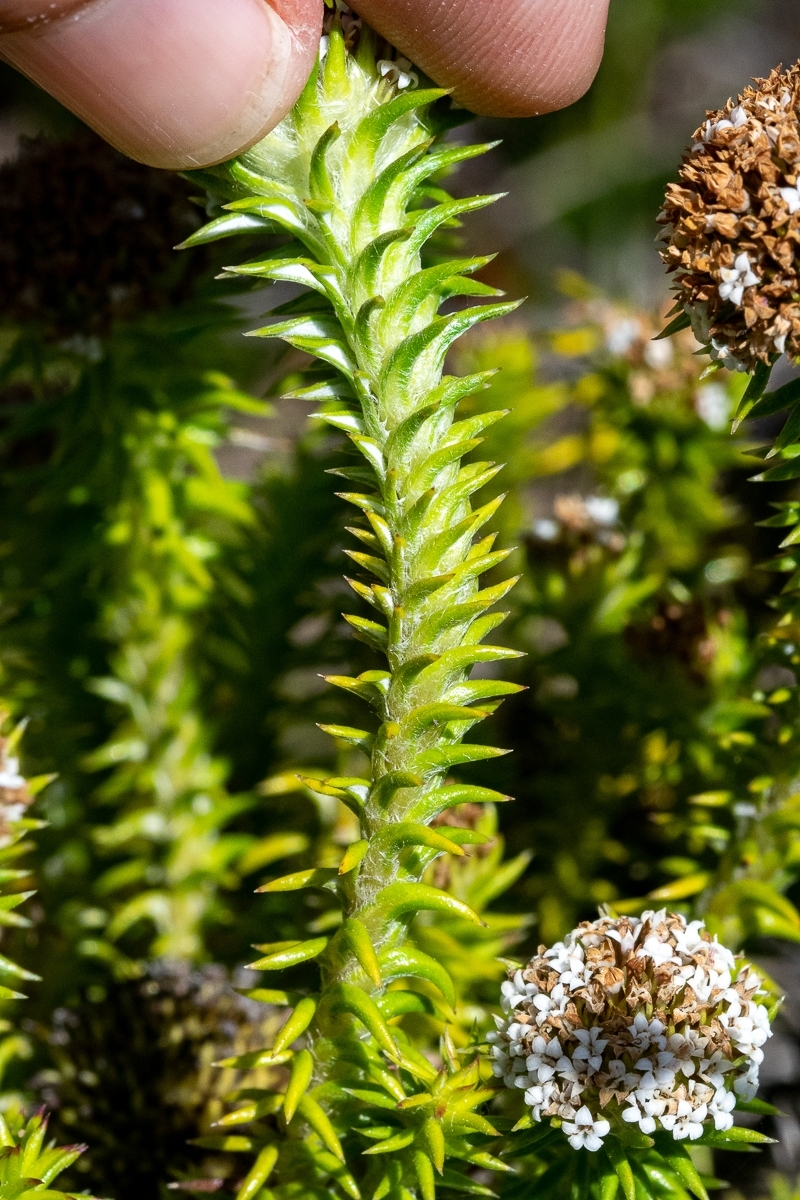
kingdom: Plantae
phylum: Tracheophyta
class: Magnoliopsida
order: Asterales
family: Asteraceae
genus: Stoebe
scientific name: Stoebe aethiopica
